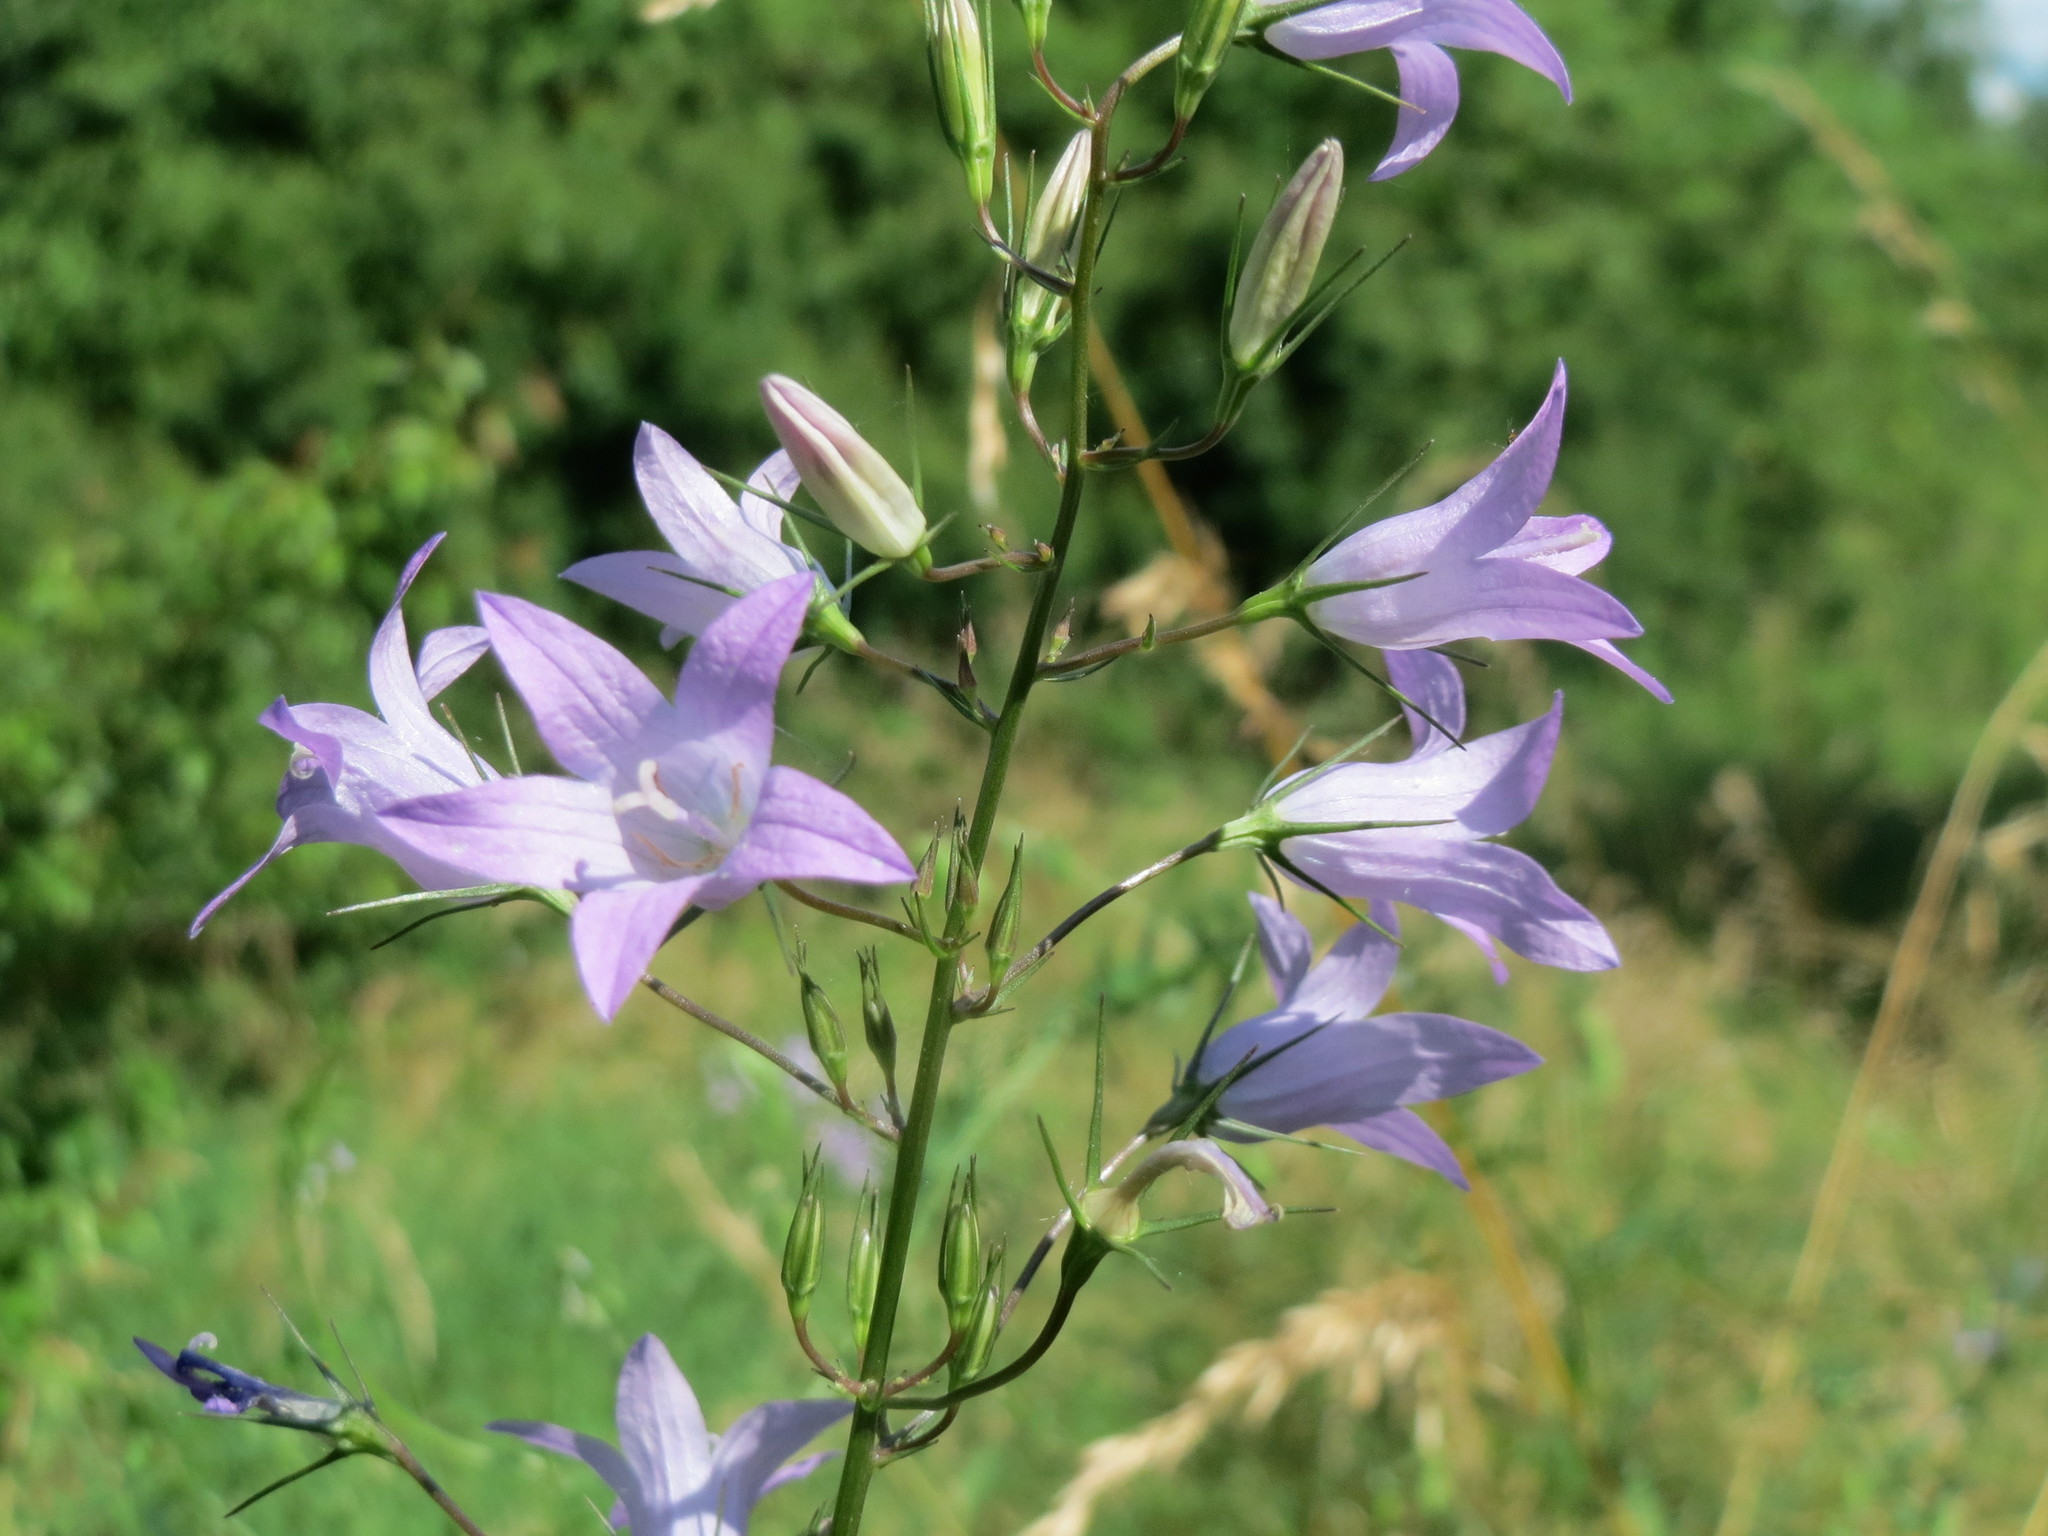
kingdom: Plantae
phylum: Tracheophyta
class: Magnoliopsida
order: Asterales
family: Campanulaceae
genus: Campanula
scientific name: Campanula rapunculus
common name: Rampion bellflower
